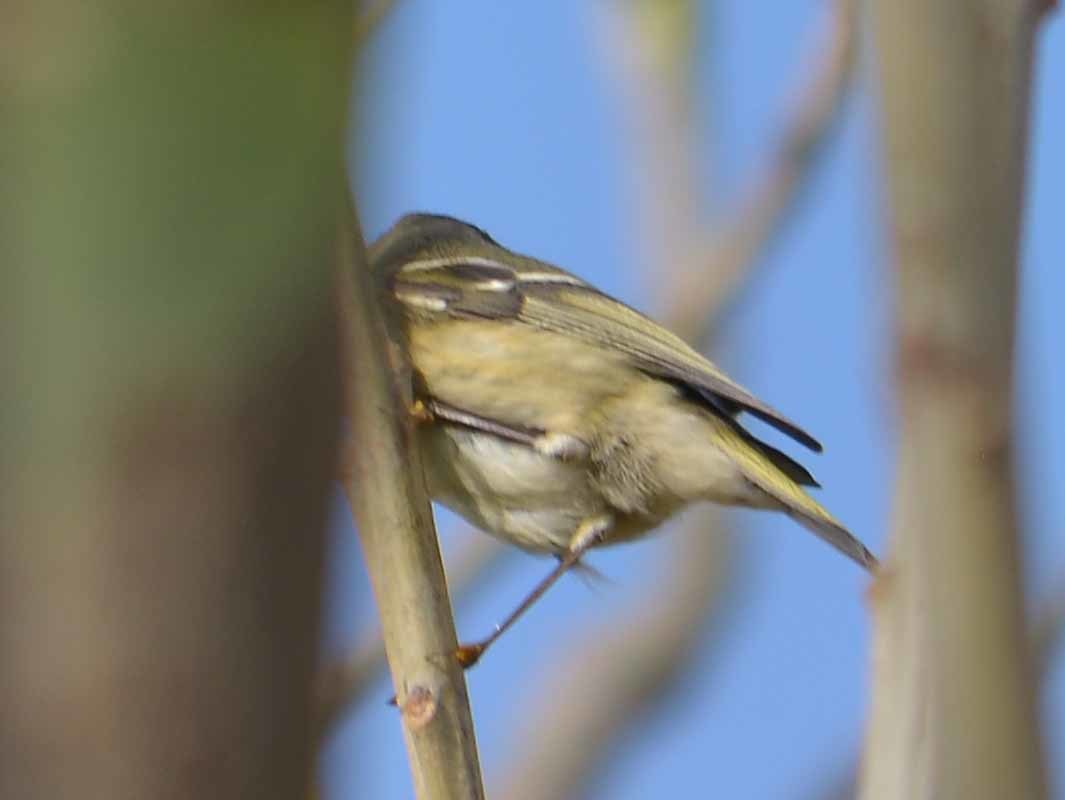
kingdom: Animalia
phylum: Chordata
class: Aves
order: Passeriformes
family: Regulidae
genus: Regulus
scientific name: Regulus calendula
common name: Ruby-crowned kinglet
